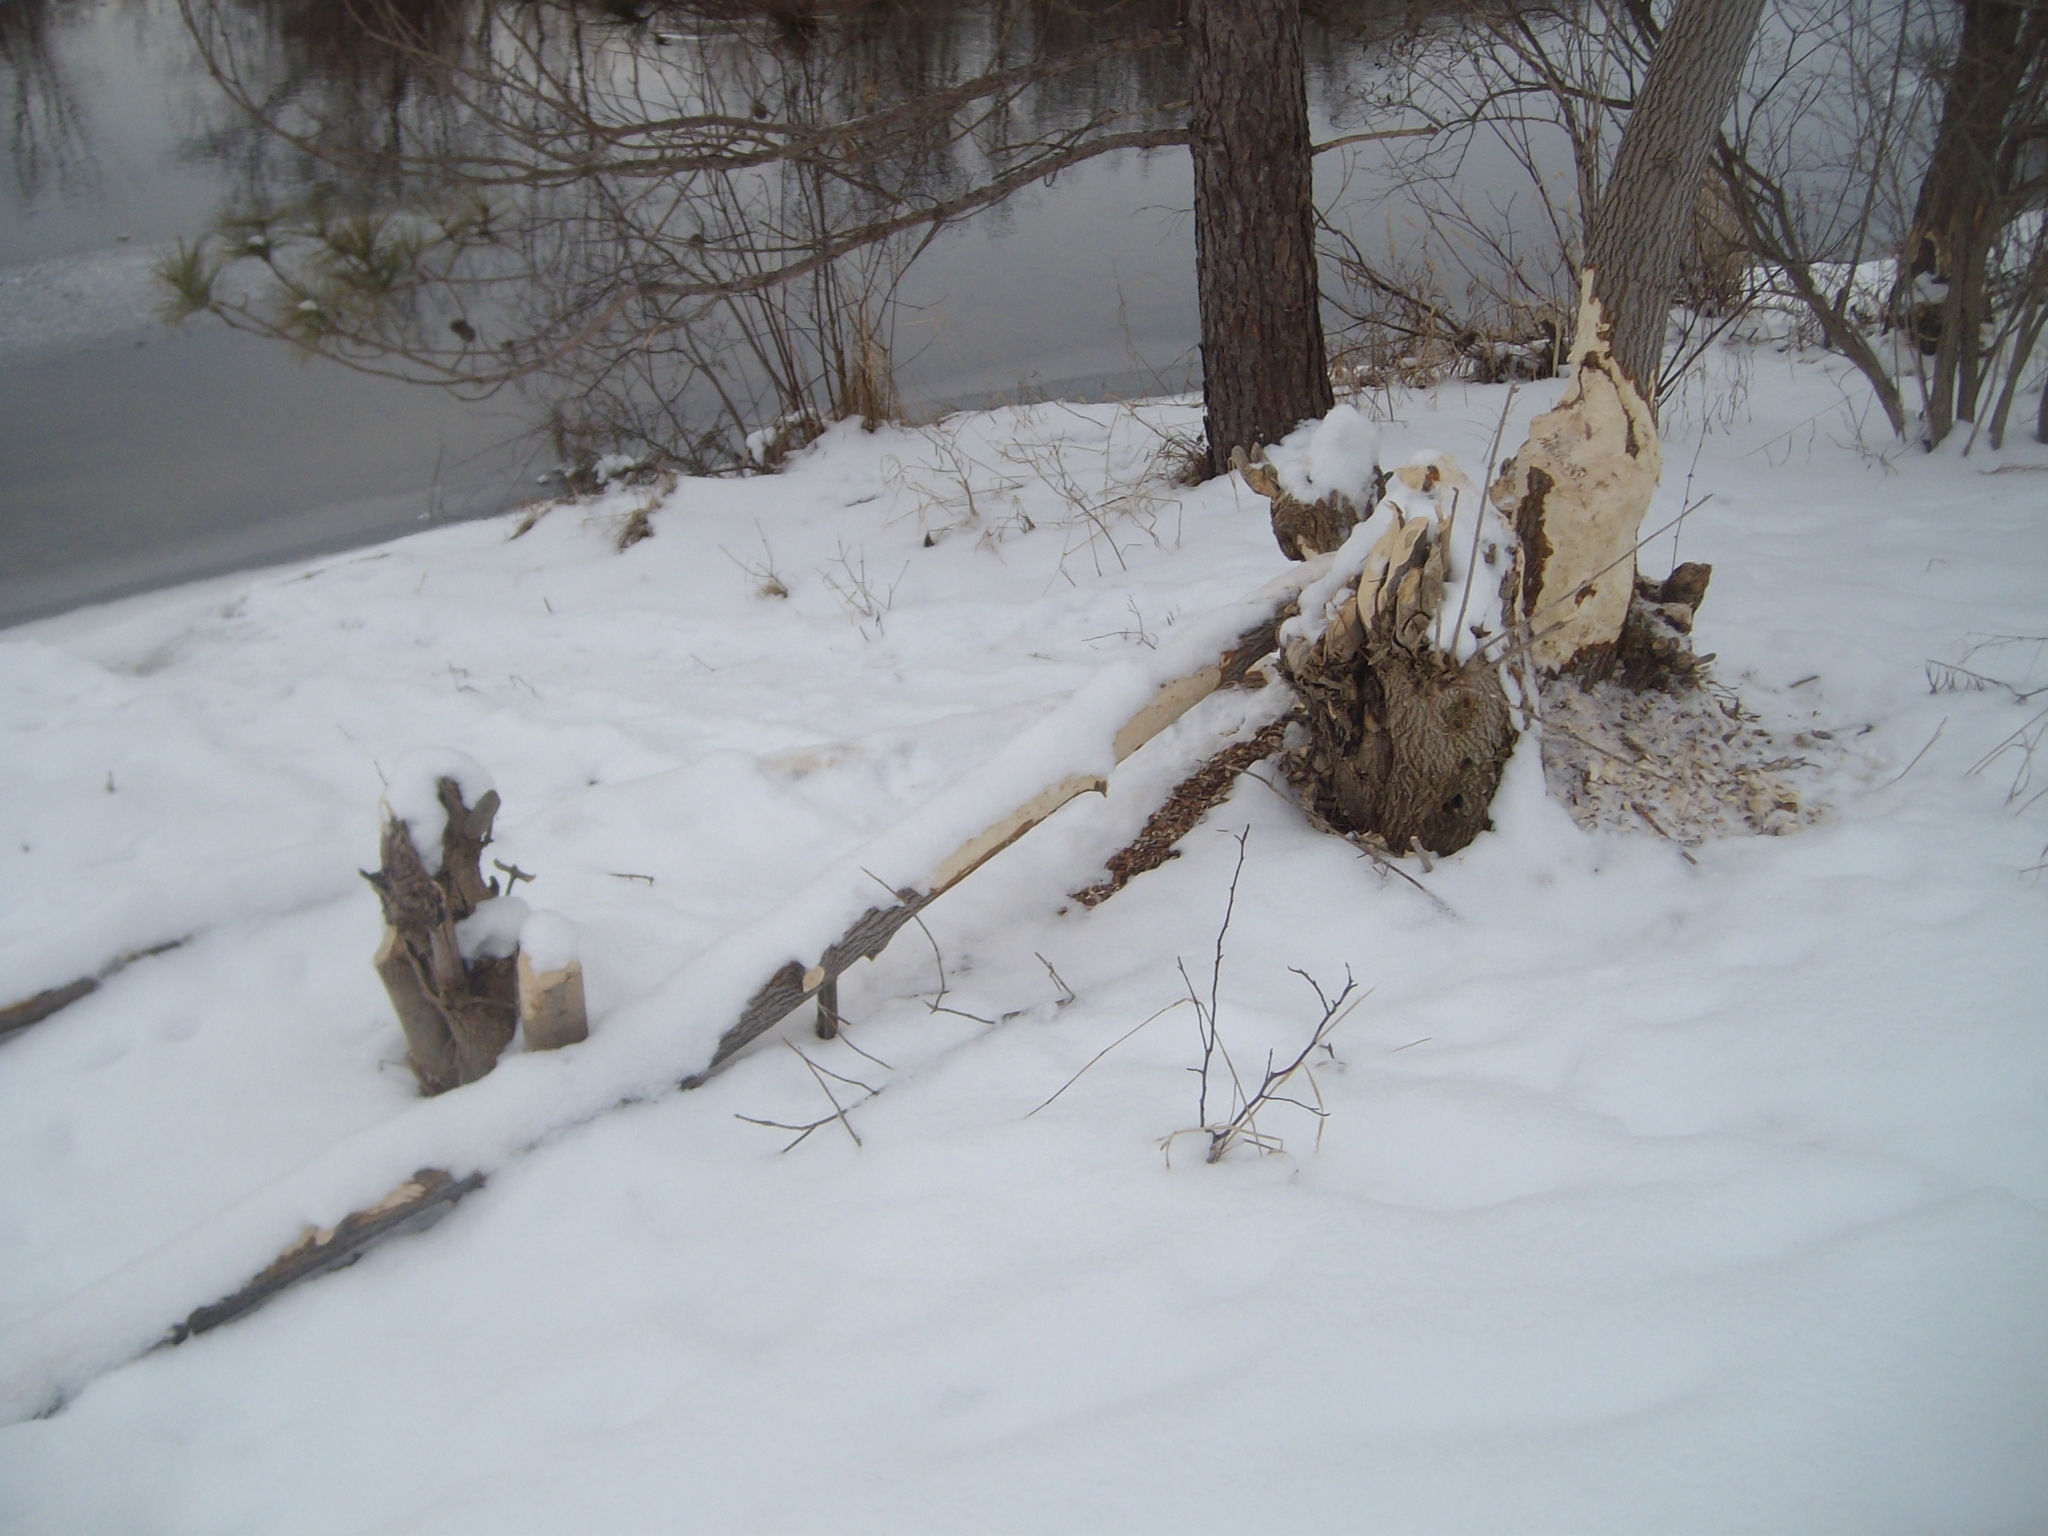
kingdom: Animalia
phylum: Chordata
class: Mammalia
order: Rodentia
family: Castoridae
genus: Castor
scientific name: Castor canadensis
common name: American beaver
